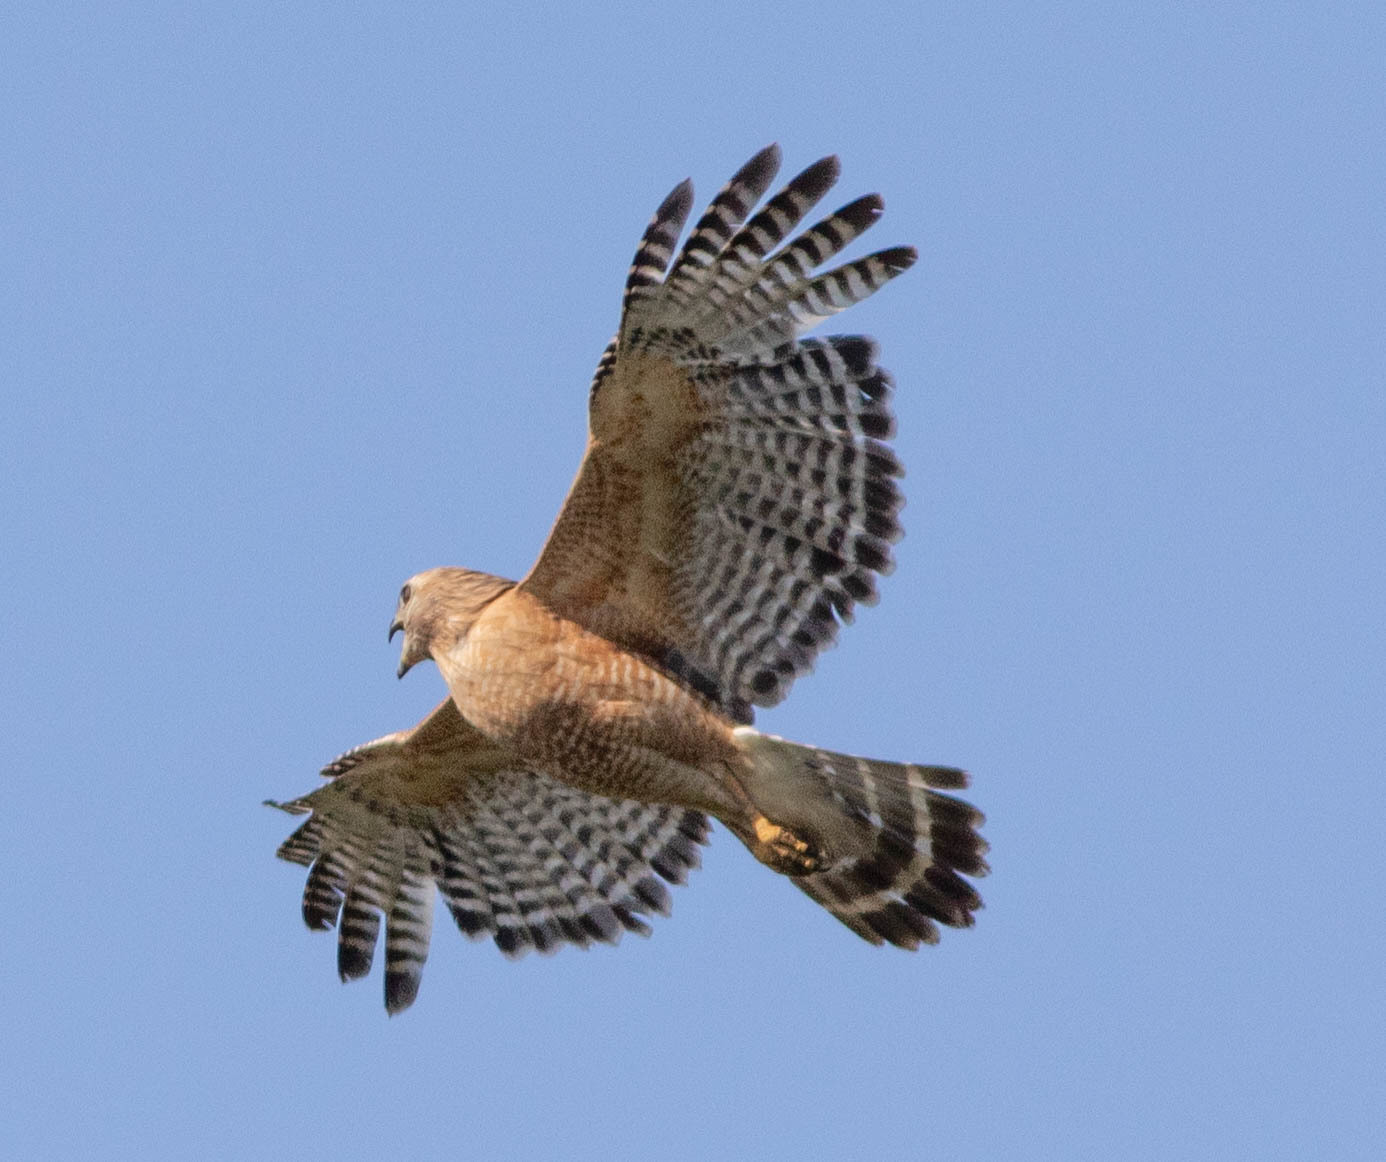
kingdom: Animalia
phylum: Chordata
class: Aves
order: Accipitriformes
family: Accipitridae
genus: Buteo
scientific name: Buteo lineatus
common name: Red-shouldered hawk
